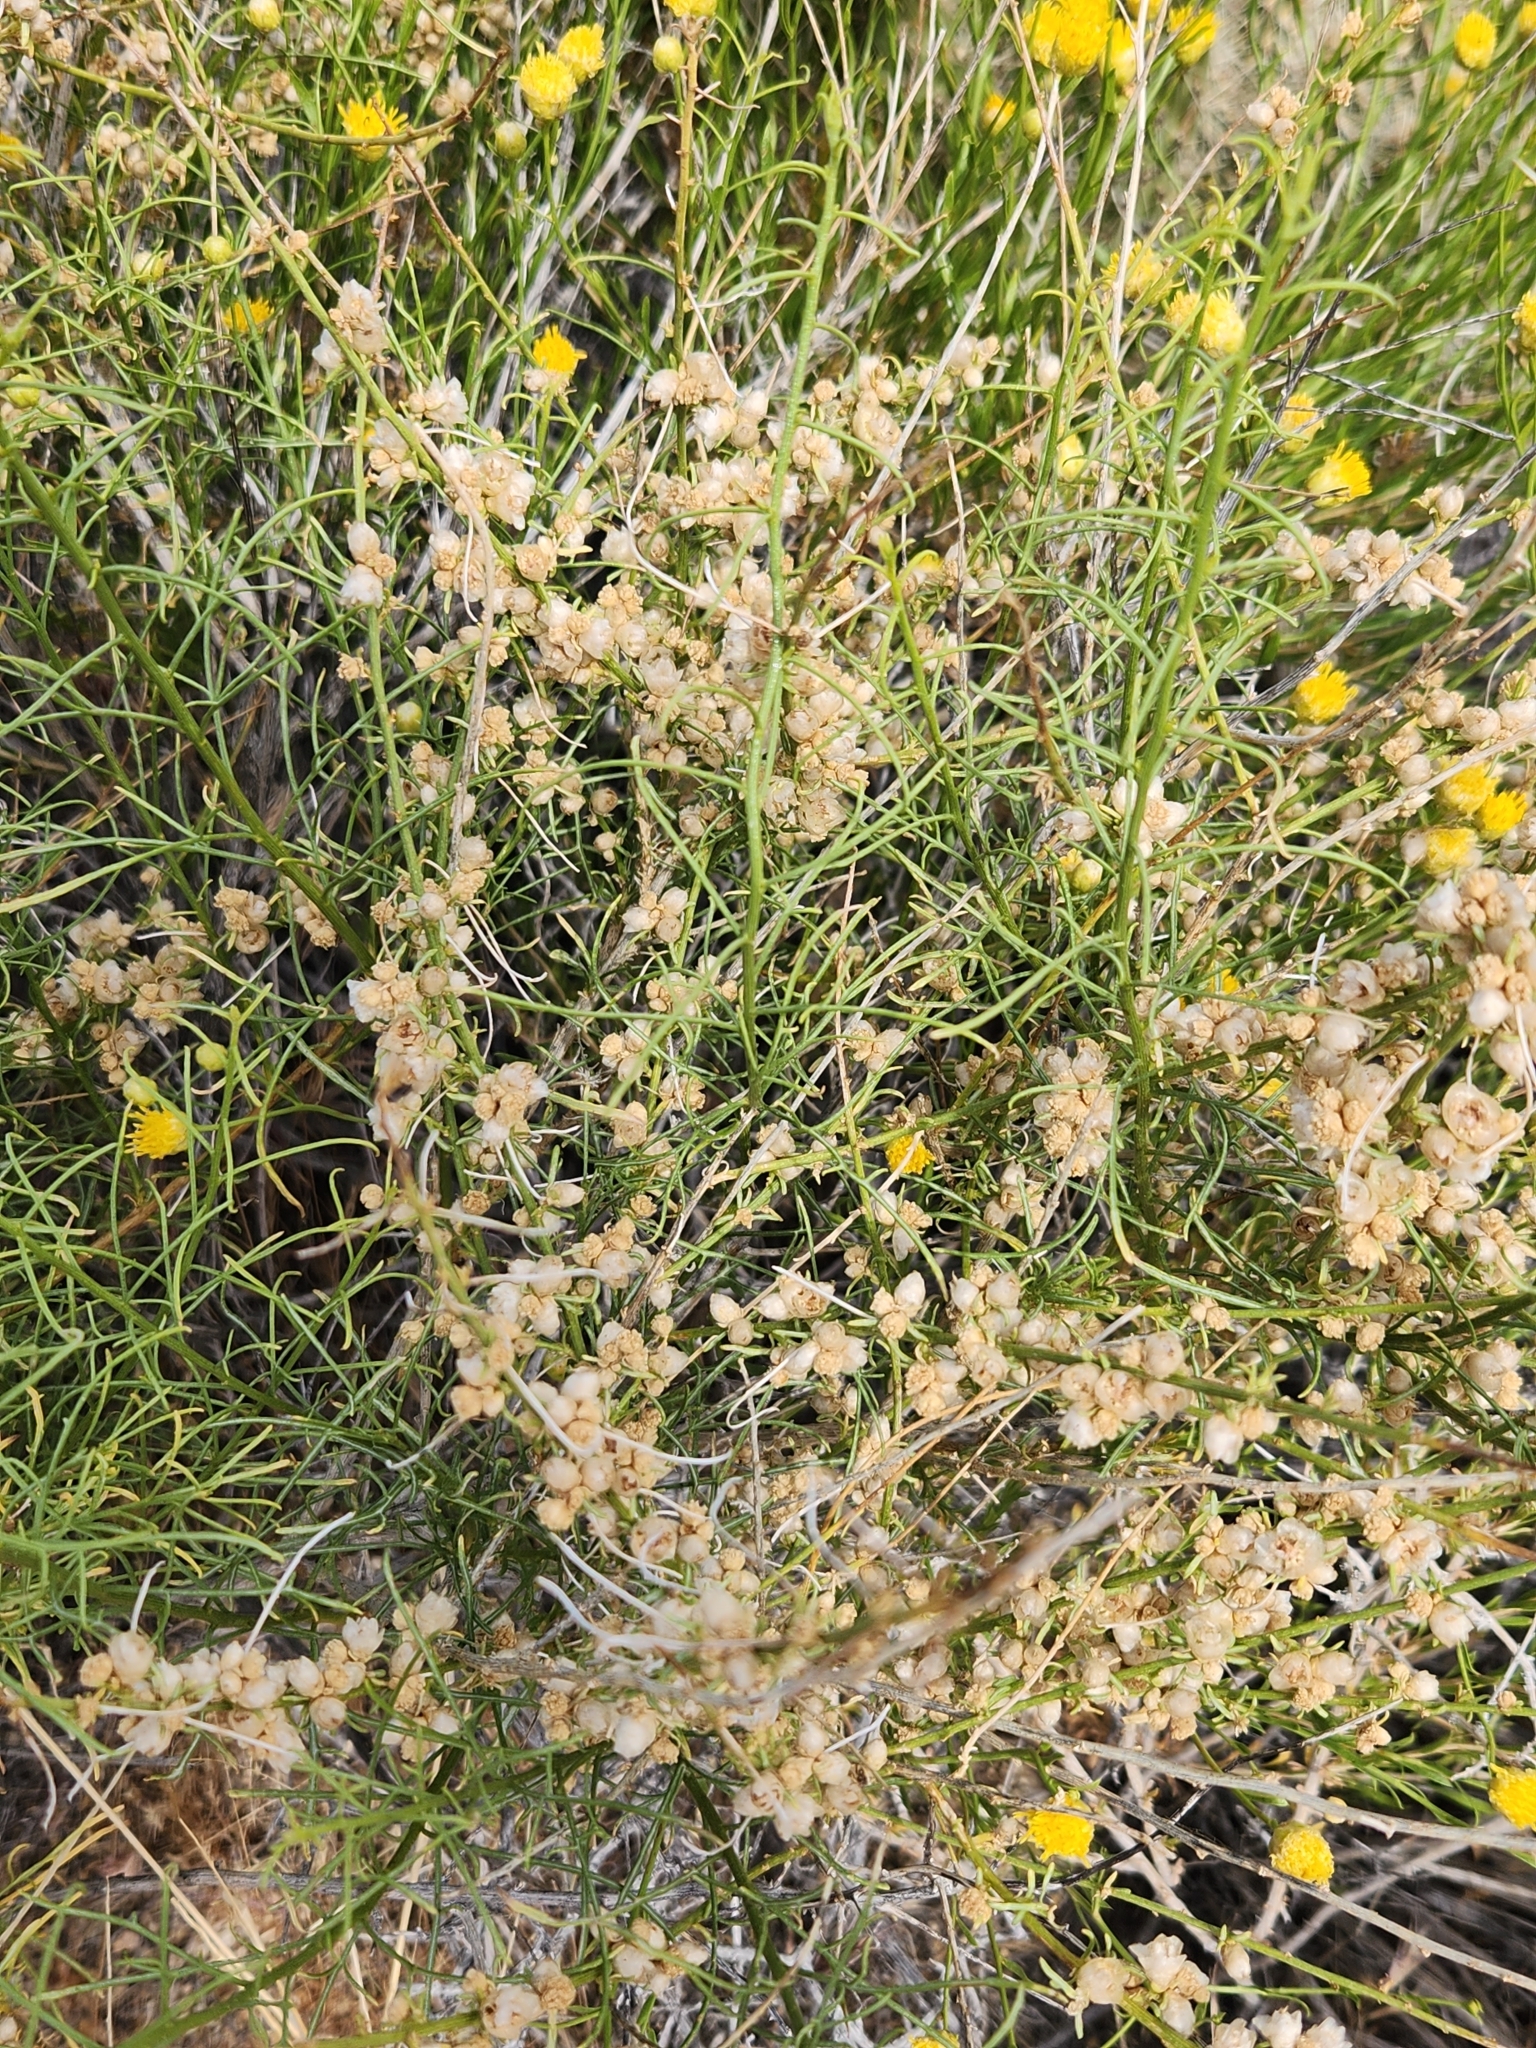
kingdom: Plantae
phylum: Tracheophyta
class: Magnoliopsida
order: Asterales
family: Asteraceae
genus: Ambrosia
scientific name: Ambrosia salsola
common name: Burrobrush
